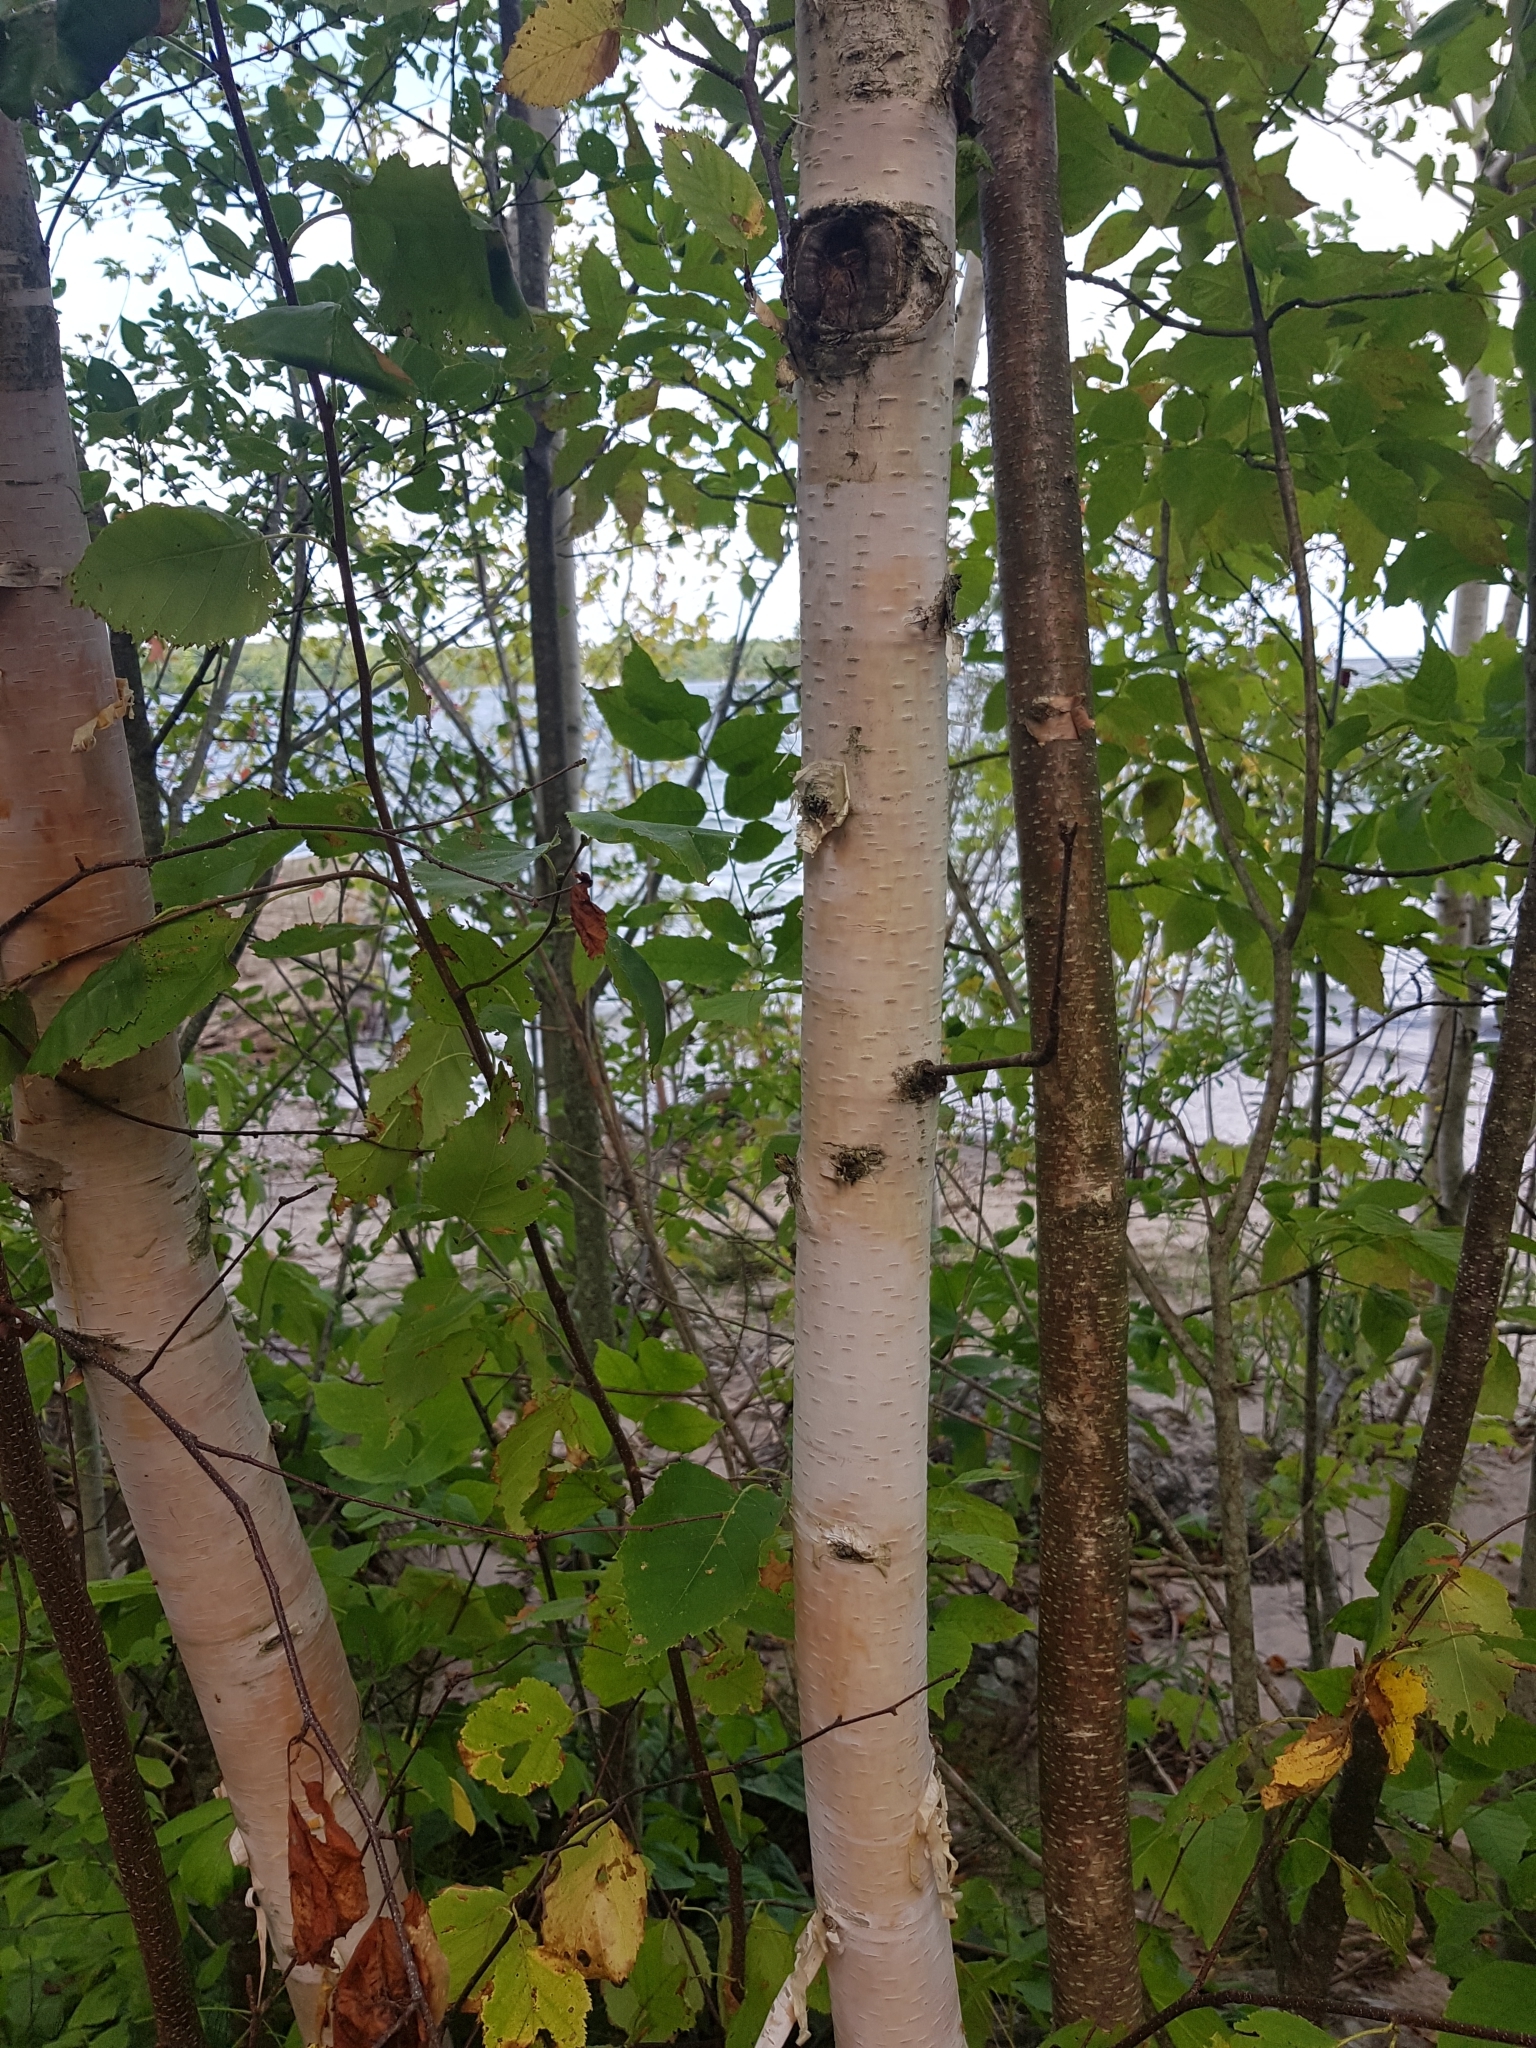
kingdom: Plantae
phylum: Tracheophyta
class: Magnoliopsida
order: Fagales
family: Betulaceae
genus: Betula
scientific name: Betula papyrifera
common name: Paper birch
